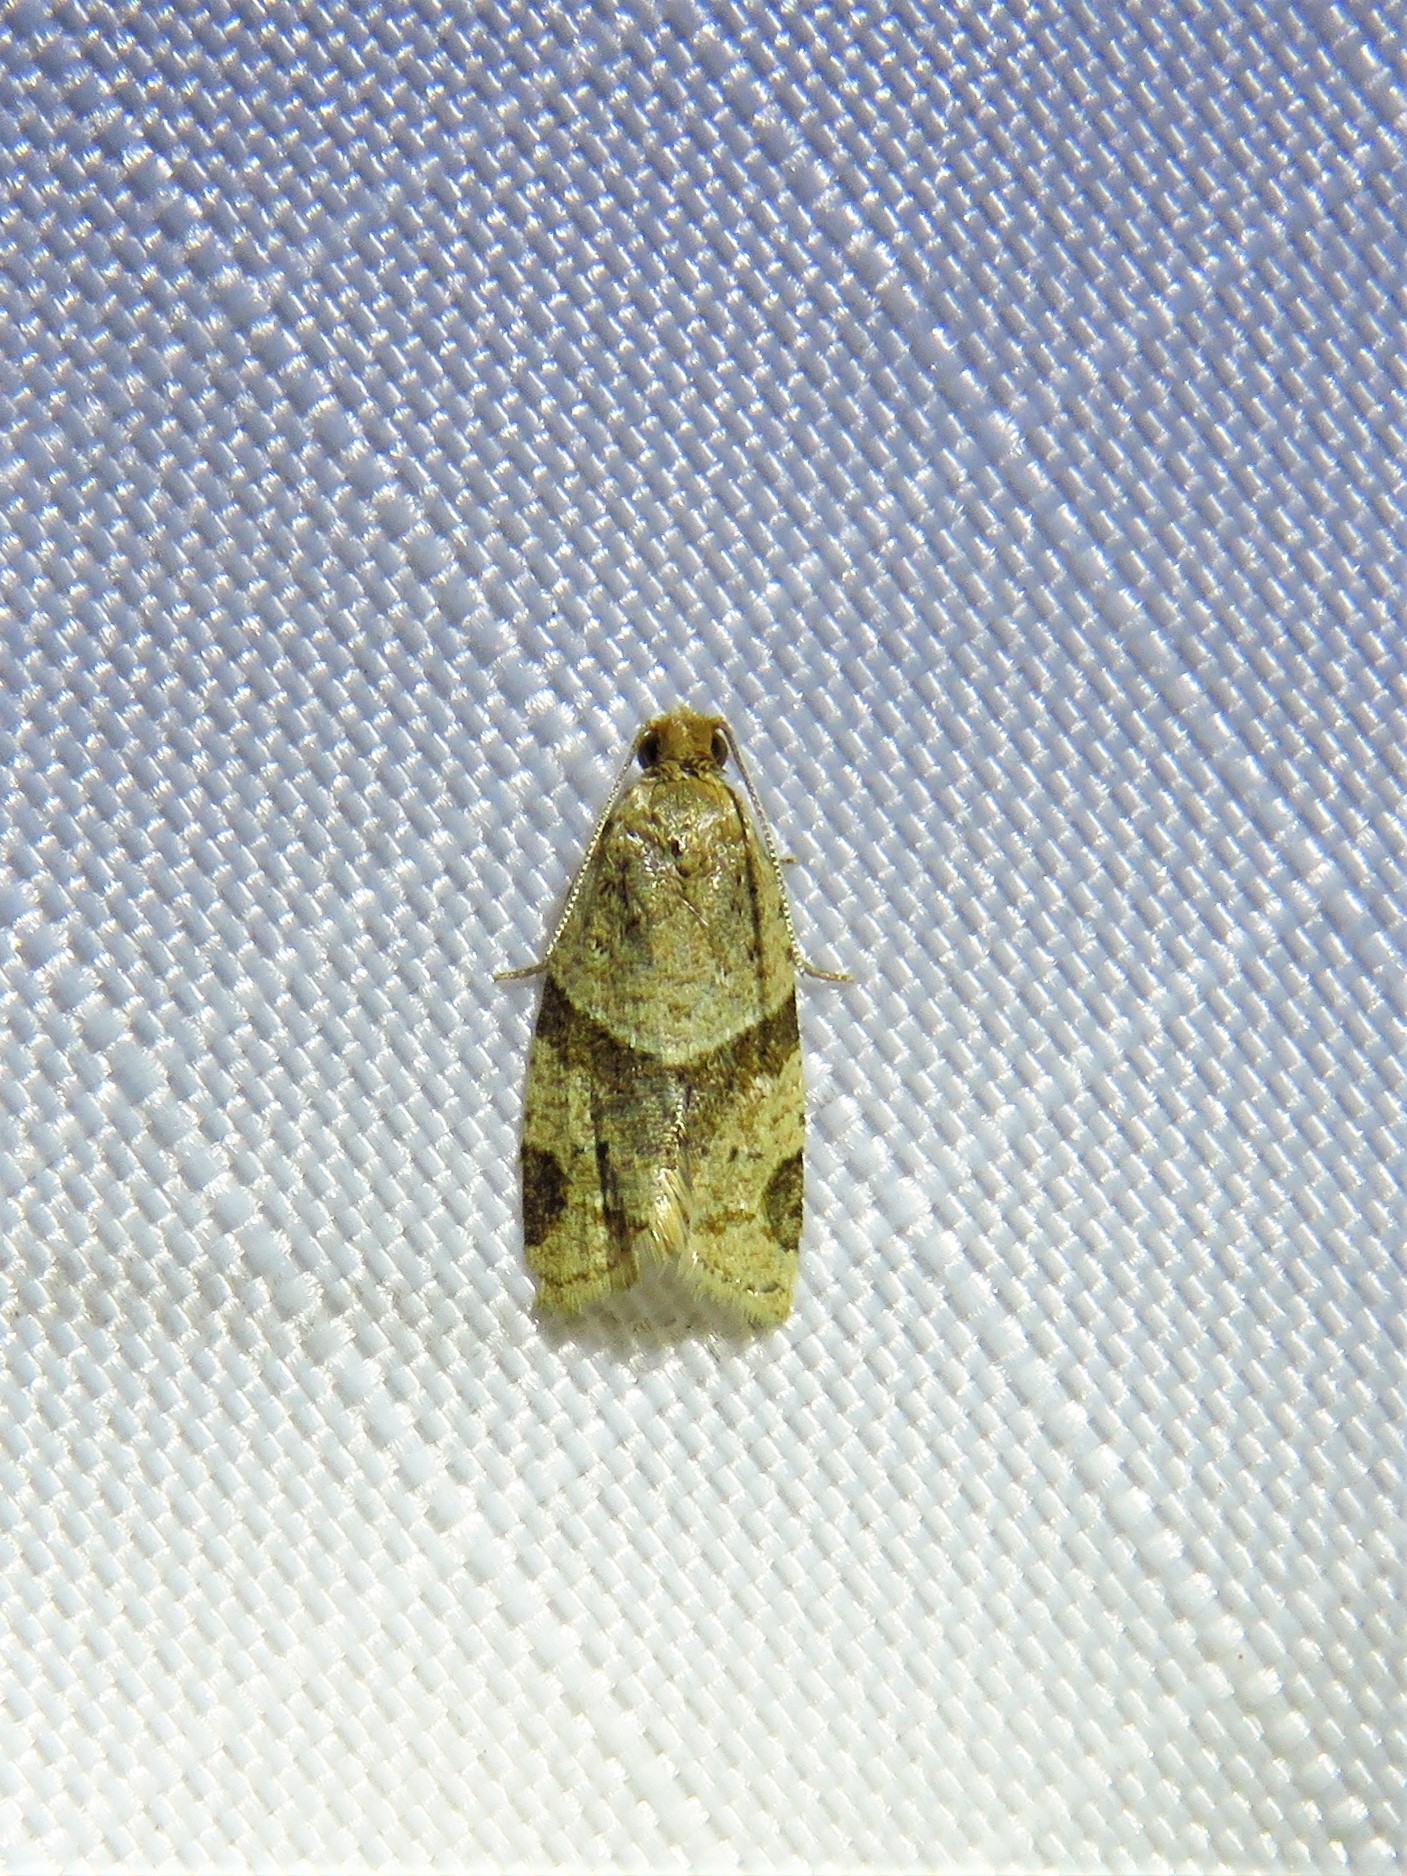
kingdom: Animalia
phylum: Arthropoda
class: Insecta
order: Lepidoptera
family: Tortricidae
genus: Clepsis
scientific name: Clepsis peritana
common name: Garden tortrix
